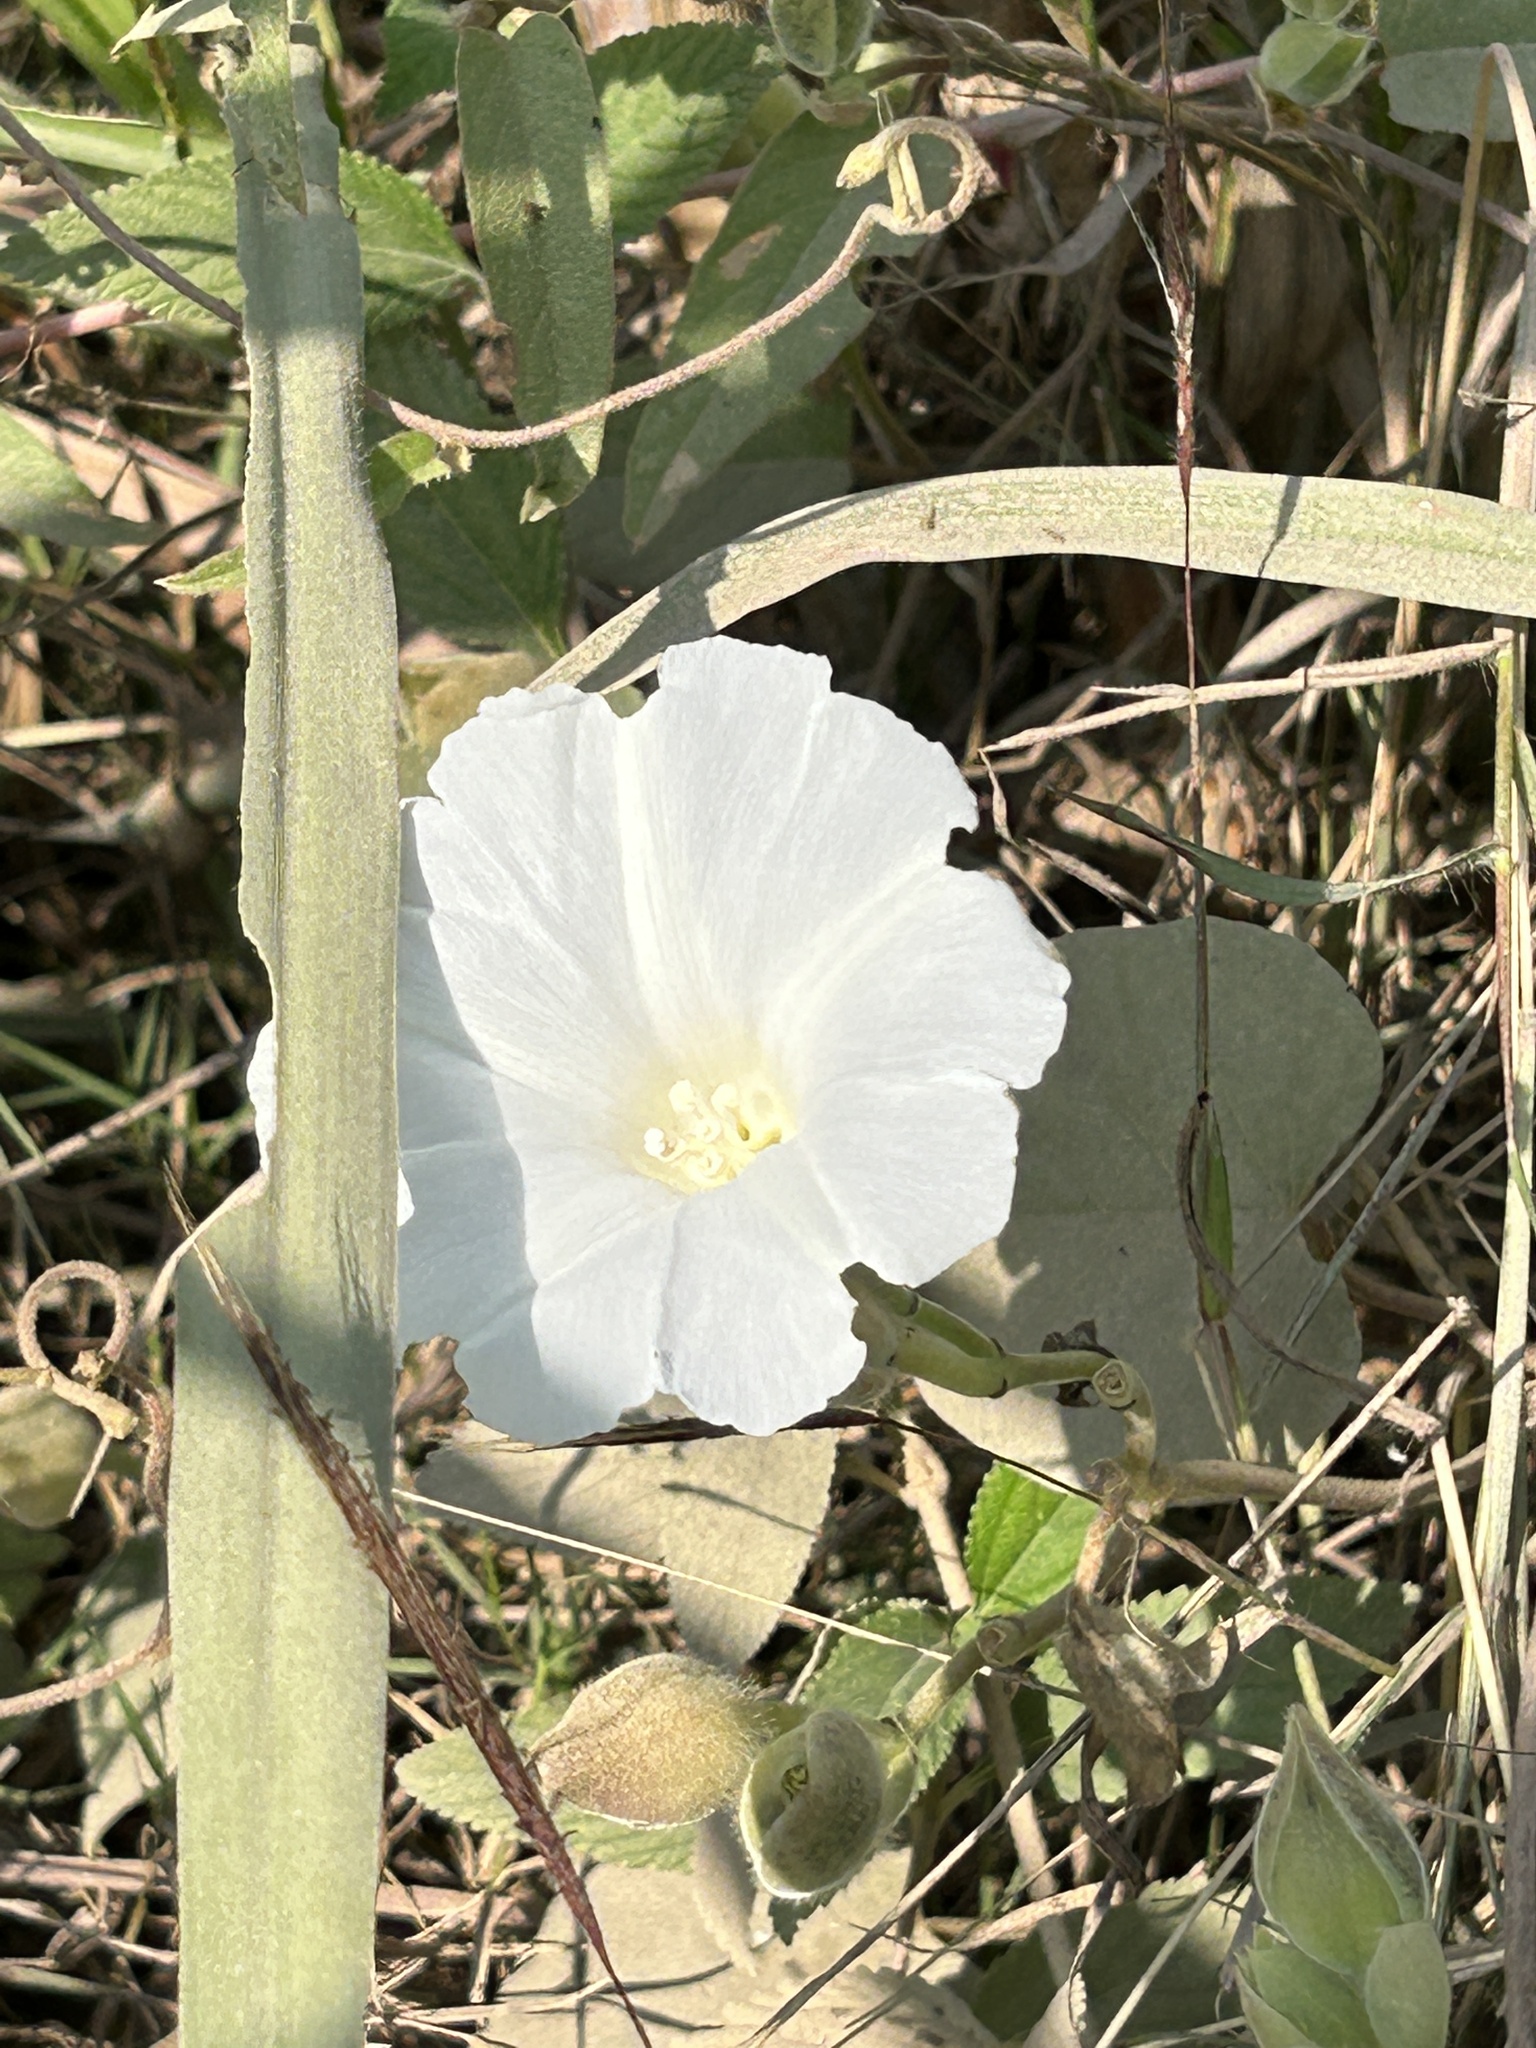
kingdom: Plantae
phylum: Tracheophyta
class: Magnoliopsida
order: Solanales
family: Convolvulaceae
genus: Ipomoea
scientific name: Ipomoea obscura
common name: Obscure morning-glory
